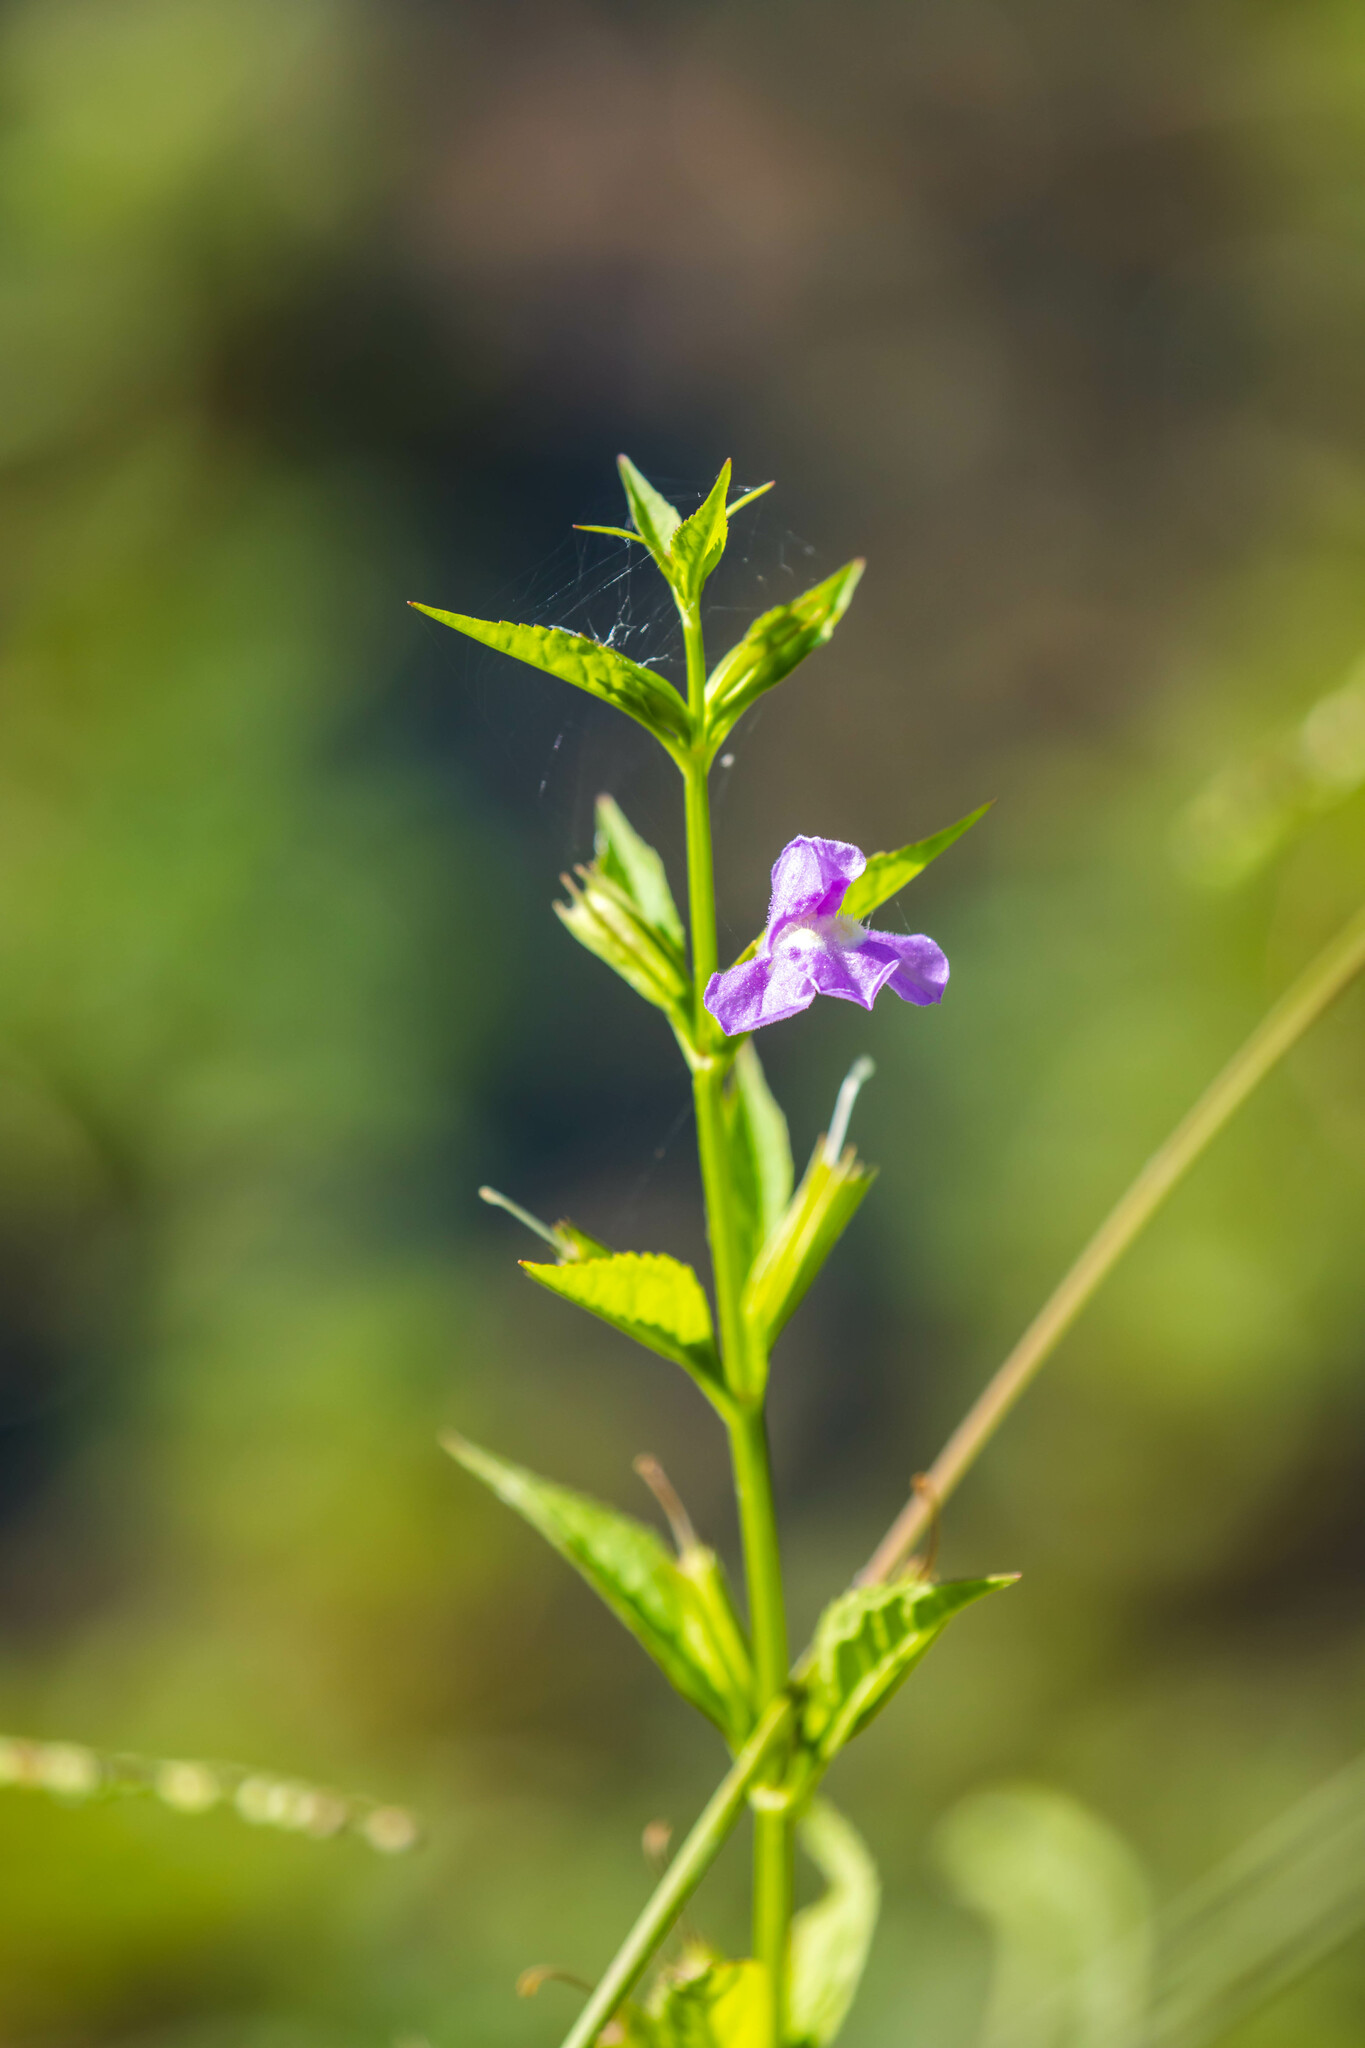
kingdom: Plantae
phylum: Tracheophyta
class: Magnoliopsida
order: Lamiales
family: Phrymaceae
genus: Mimulus
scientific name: Mimulus alatus
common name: Sharp-wing monkey-flower
